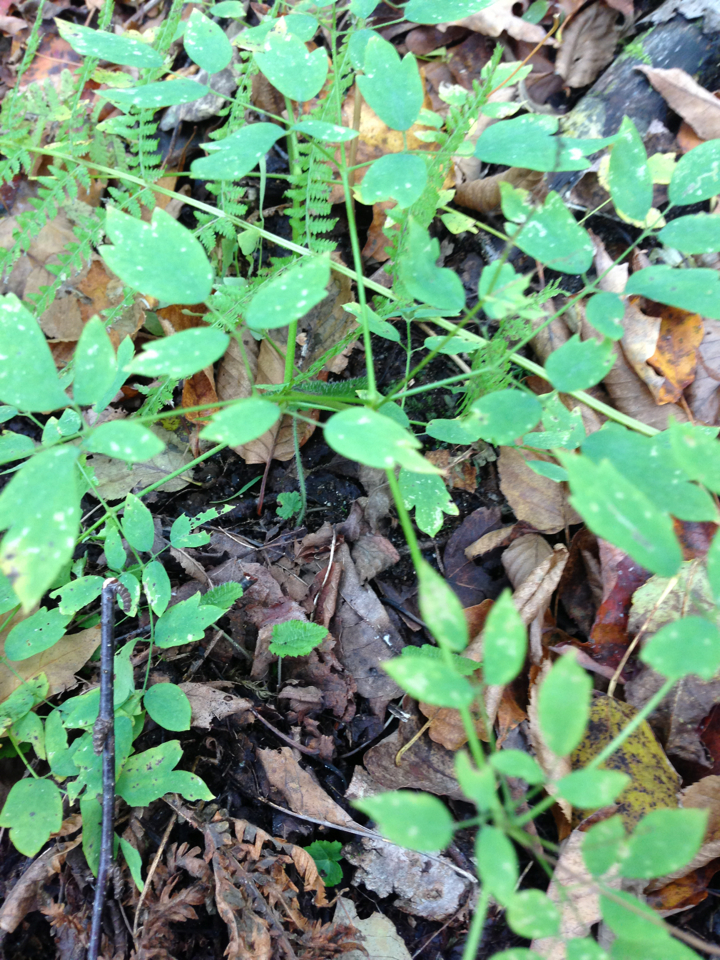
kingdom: Plantae
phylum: Tracheophyta
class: Magnoliopsida
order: Ranunculales
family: Ranunculaceae
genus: Thalictrum
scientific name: Thalictrum pubescens
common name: King-of-the-meadow
